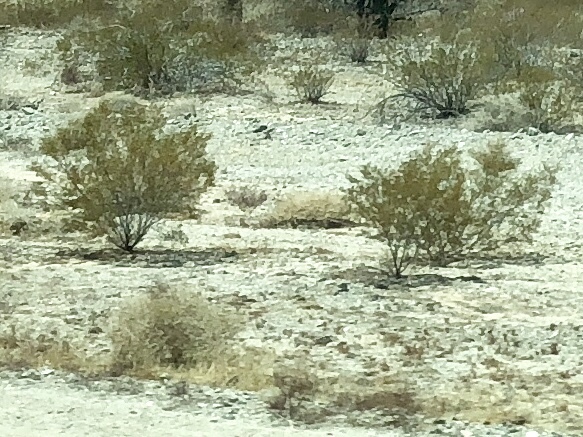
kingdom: Plantae
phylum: Tracheophyta
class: Magnoliopsida
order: Zygophyllales
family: Zygophyllaceae
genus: Larrea
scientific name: Larrea tridentata
